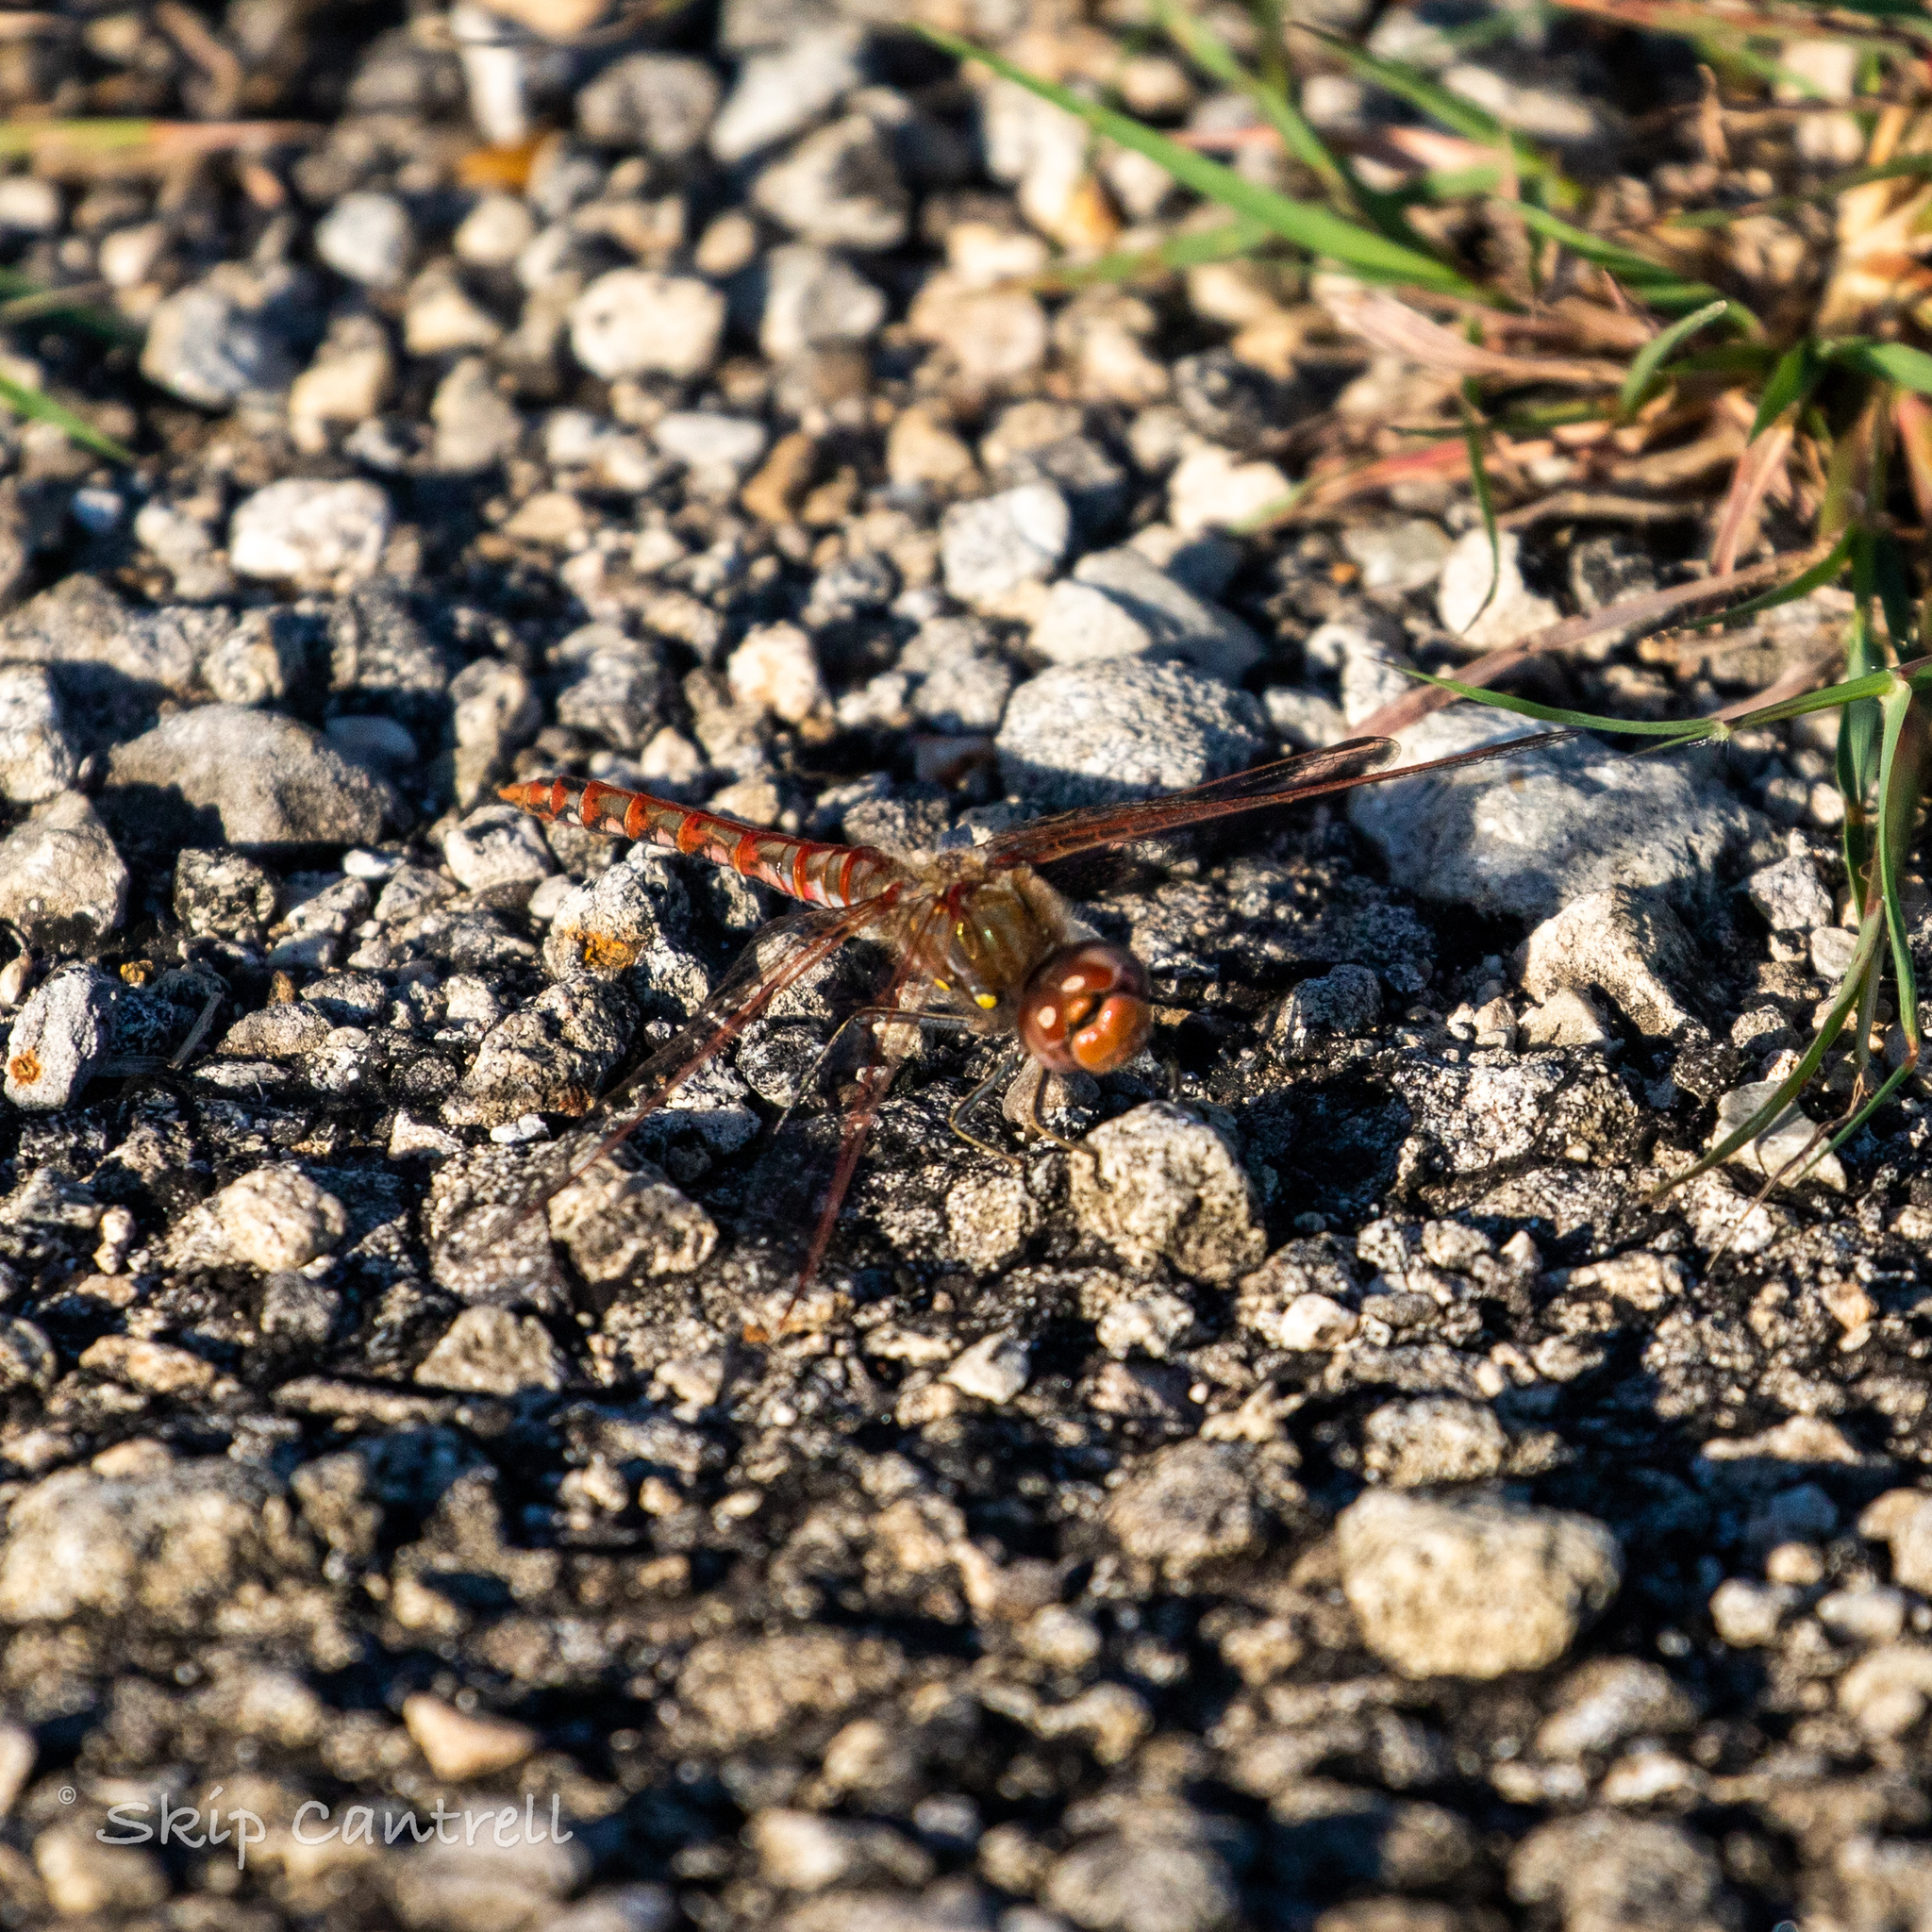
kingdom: Animalia
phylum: Arthropoda
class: Insecta
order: Odonata
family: Libellulidae
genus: Sympetrum
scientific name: Sympetrum corruptum
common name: Variegated meadowhawk
